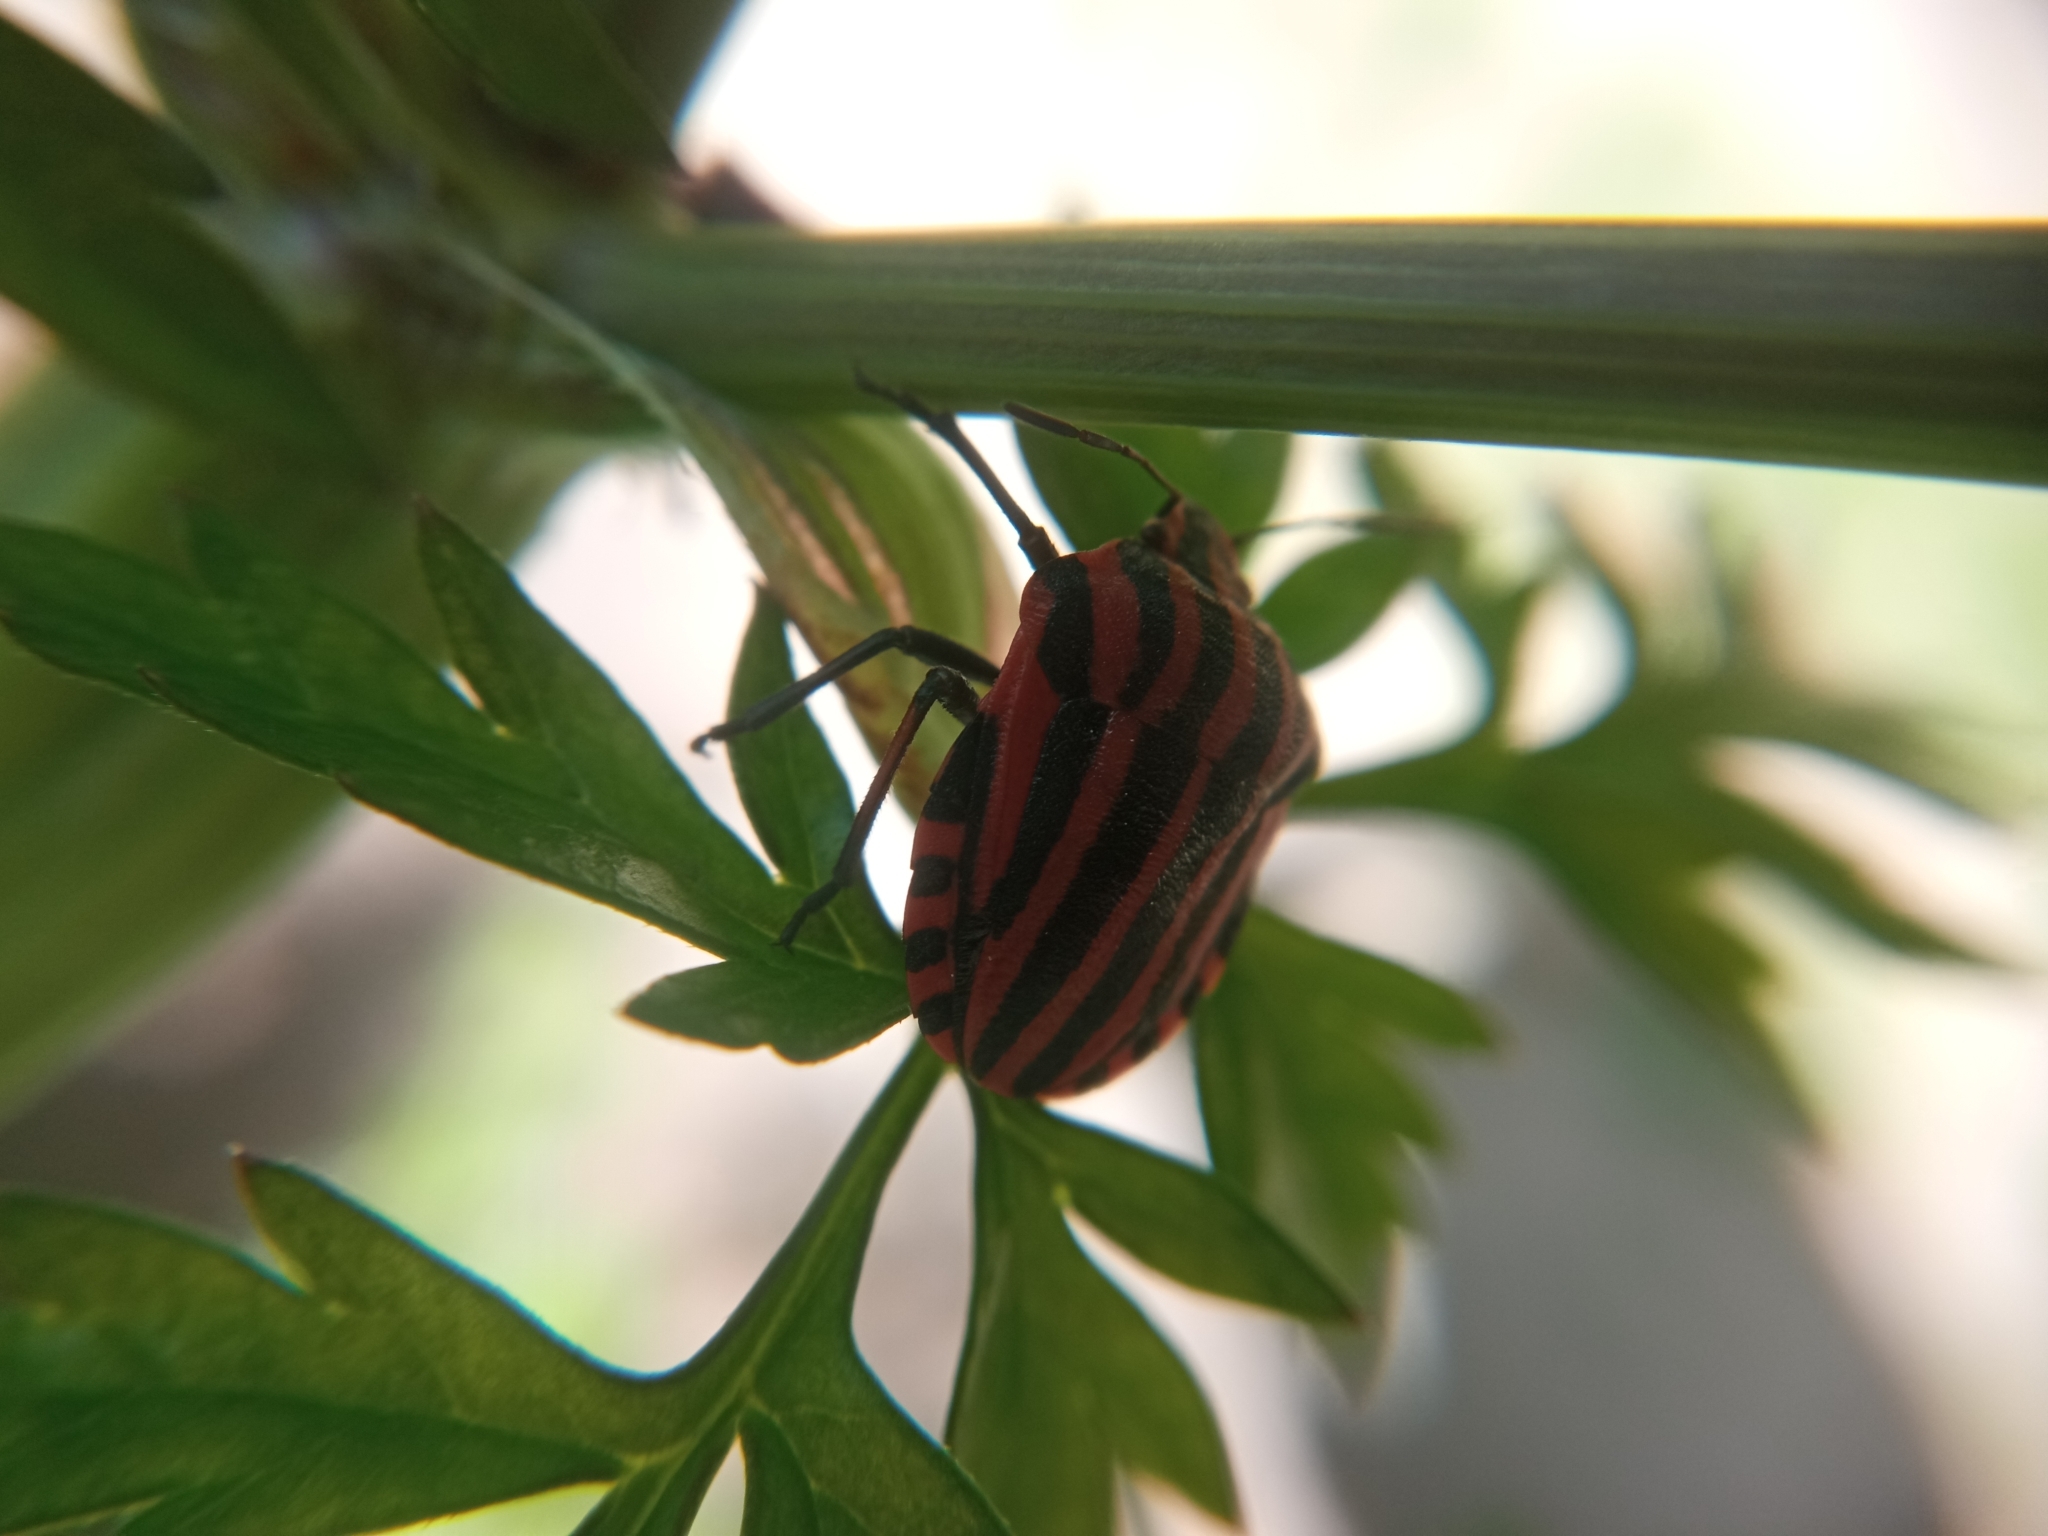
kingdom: Animalia
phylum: Arthropoda
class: Insecta
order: Hemiptera
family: Pentatomidae
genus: Graphosoma
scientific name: Graphosoma italicum
